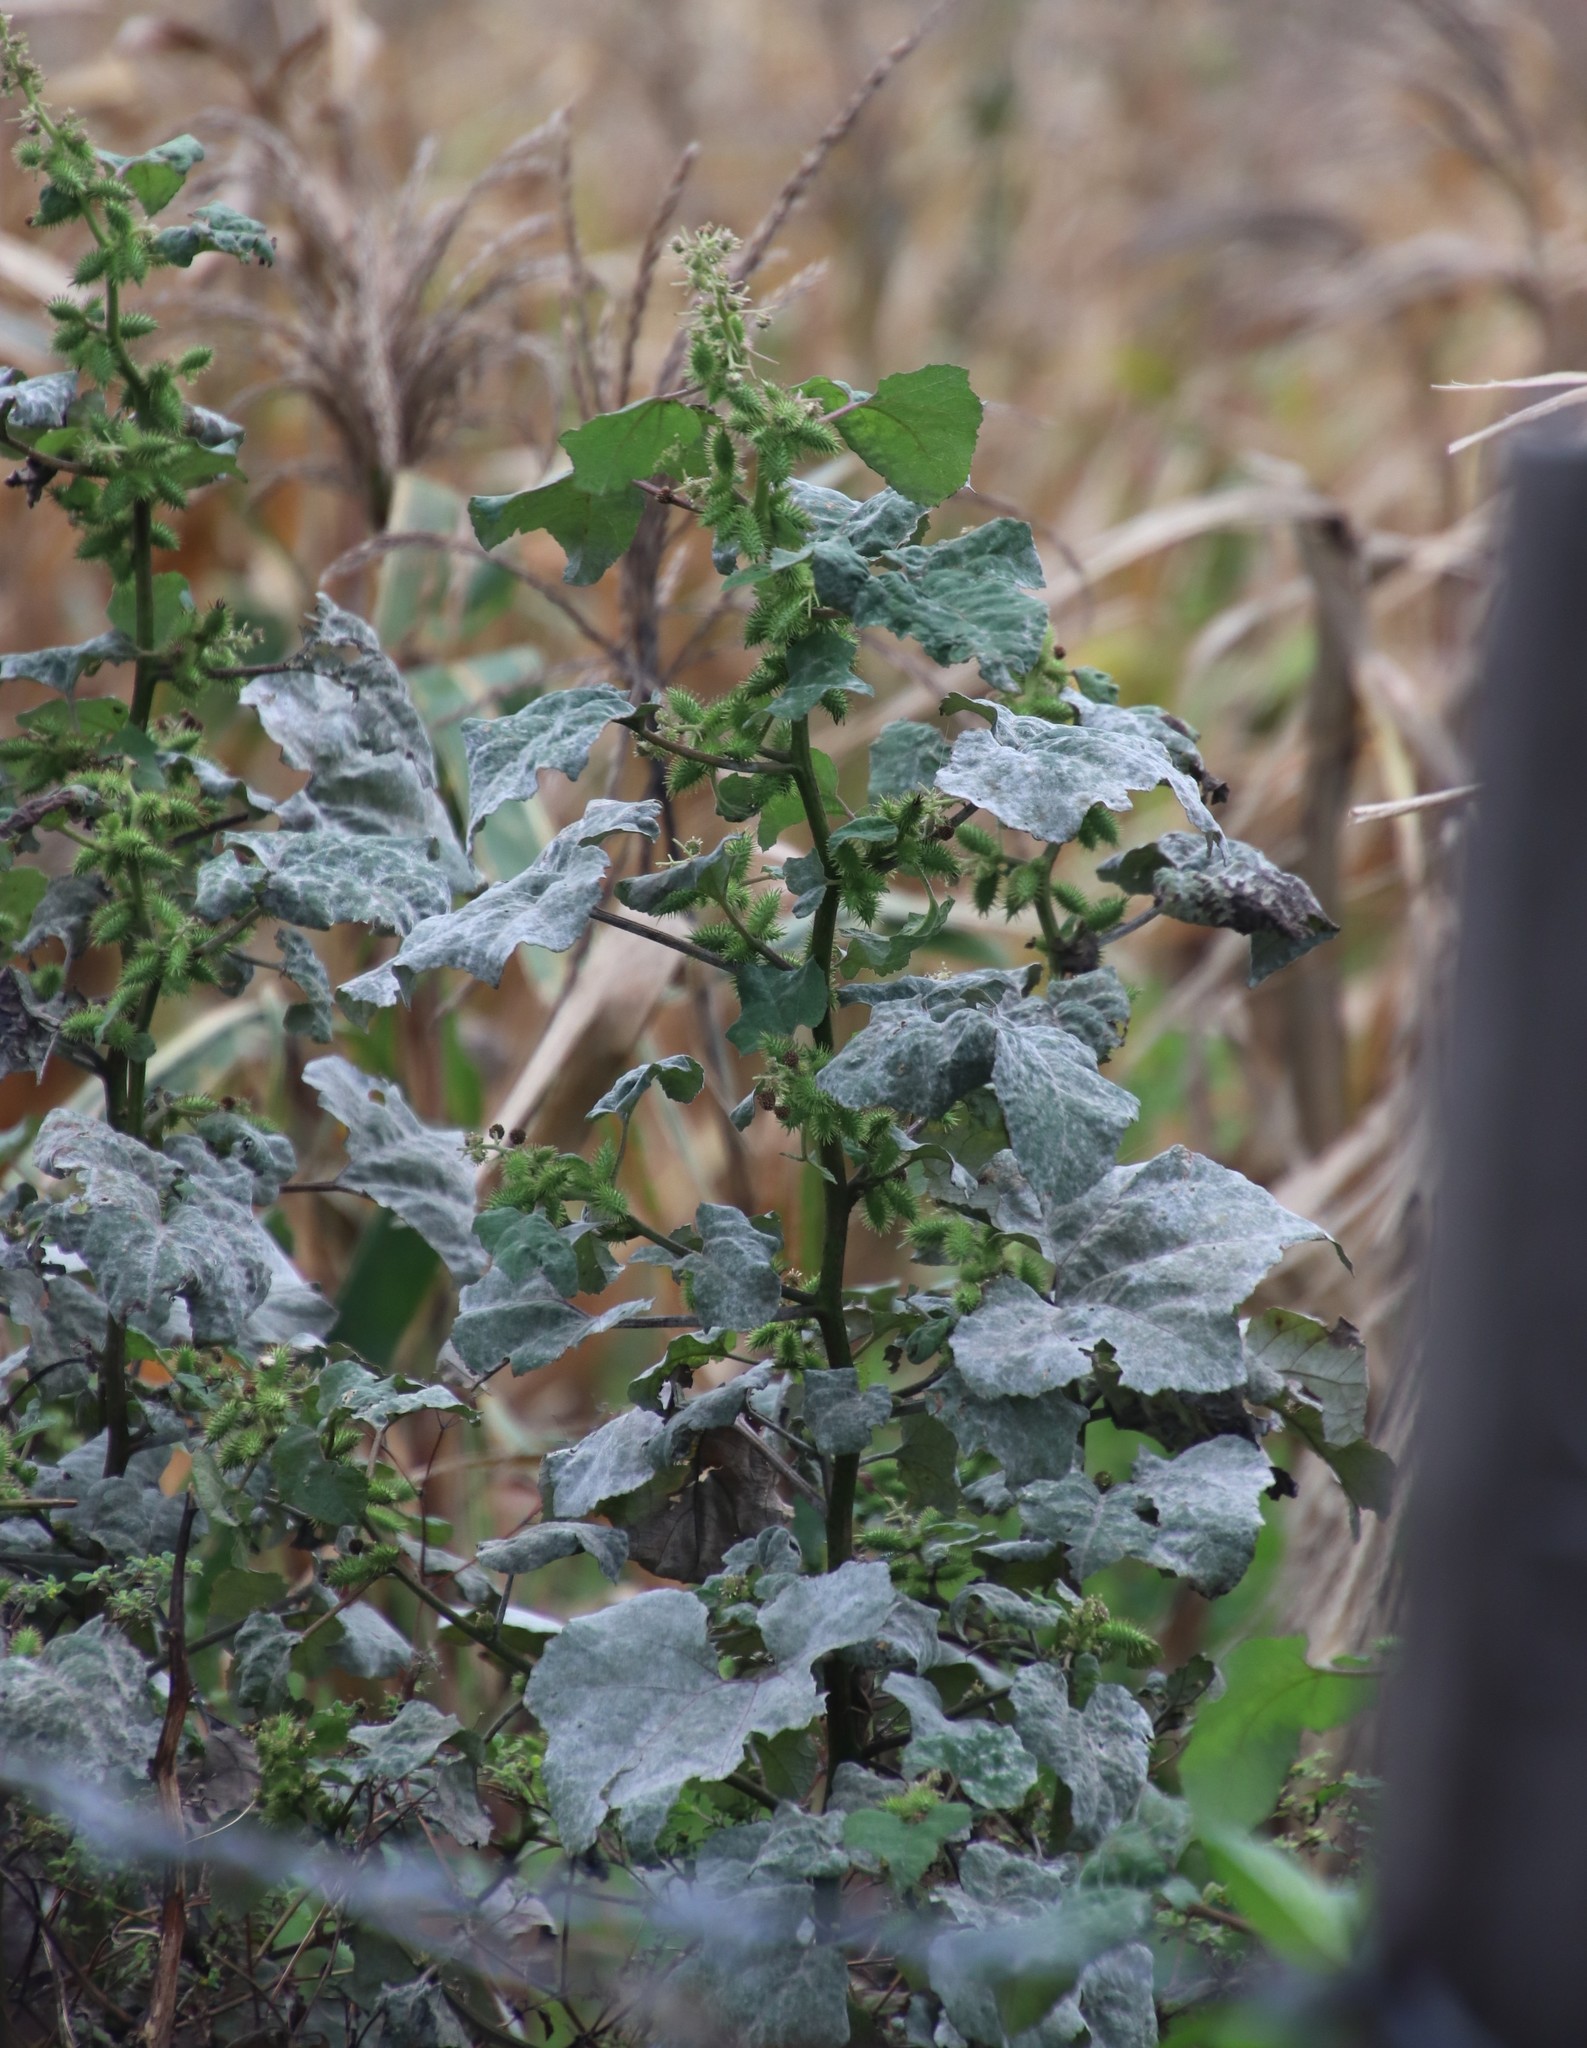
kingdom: Plantae
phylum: Tracheophyta
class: Magnoliopsida
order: Asterales
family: Asteraceae
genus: Xanthium
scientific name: Xanthium strumarium
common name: Rough cocklebur
